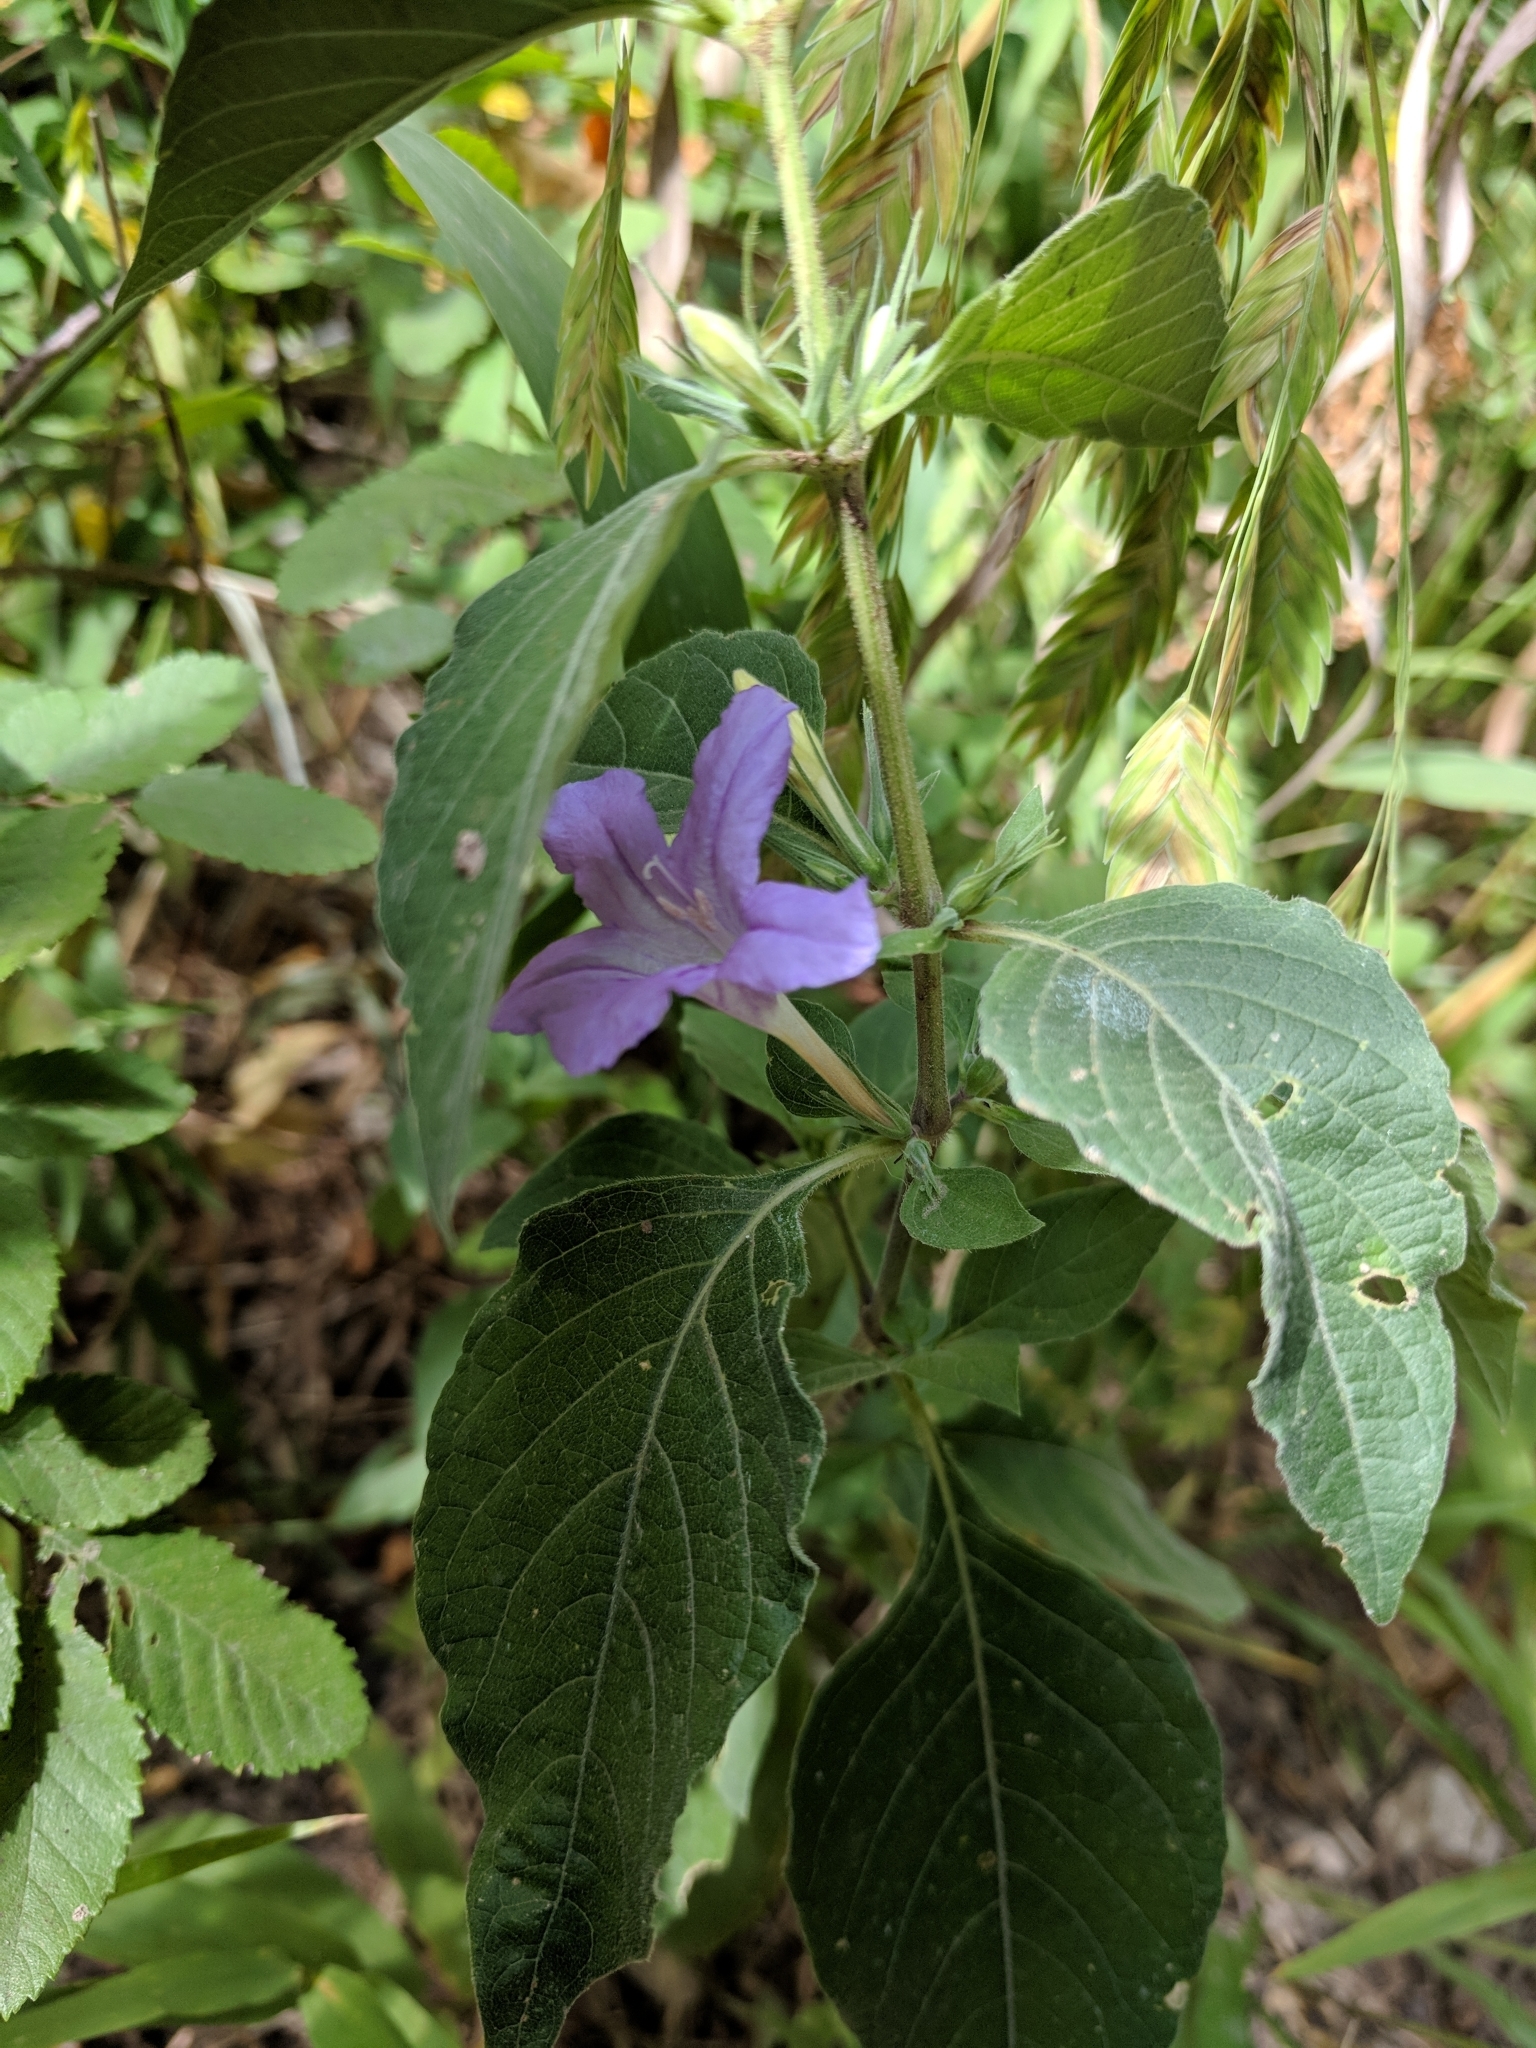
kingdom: Plantae
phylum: Tracheophyta
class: Magnoliopsida
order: Lamiales
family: Acanthaceae
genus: Ruellia
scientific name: Ruellia drummondiana
